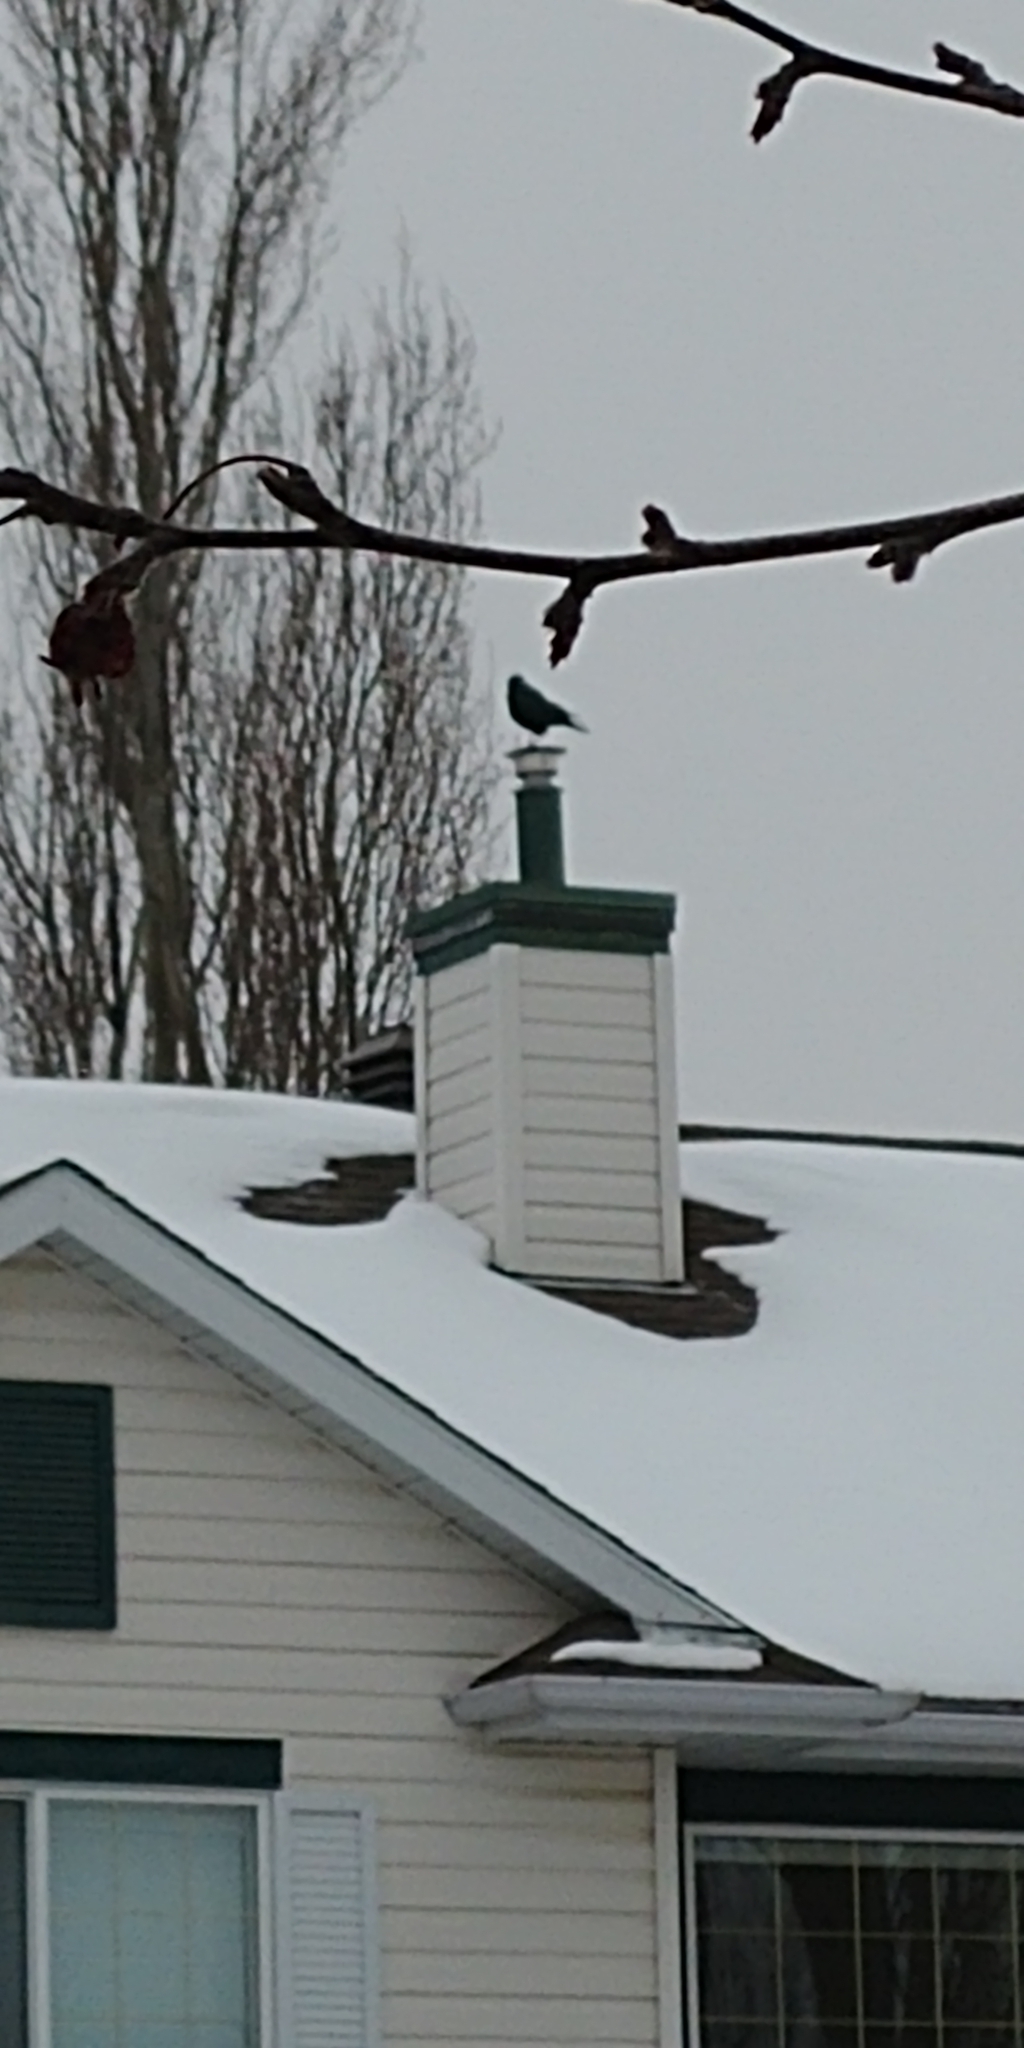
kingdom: Animalia
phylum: Chordata
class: Aves
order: Passeriformes
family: Corvidae
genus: Corvus
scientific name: Corvus brachyrhynchos
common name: American crow
